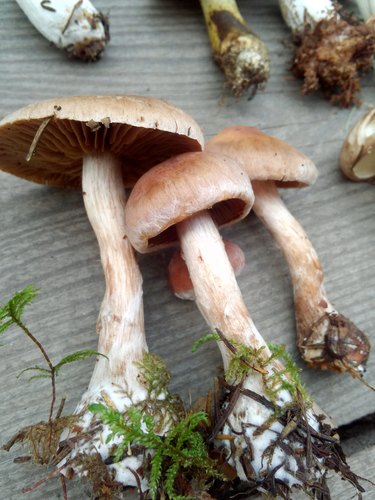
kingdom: Fungi
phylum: Basidiomycota
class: Agaricomycetes
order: Agaricales
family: Cortinariaceae
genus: Cortinarius
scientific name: Cortinarius
